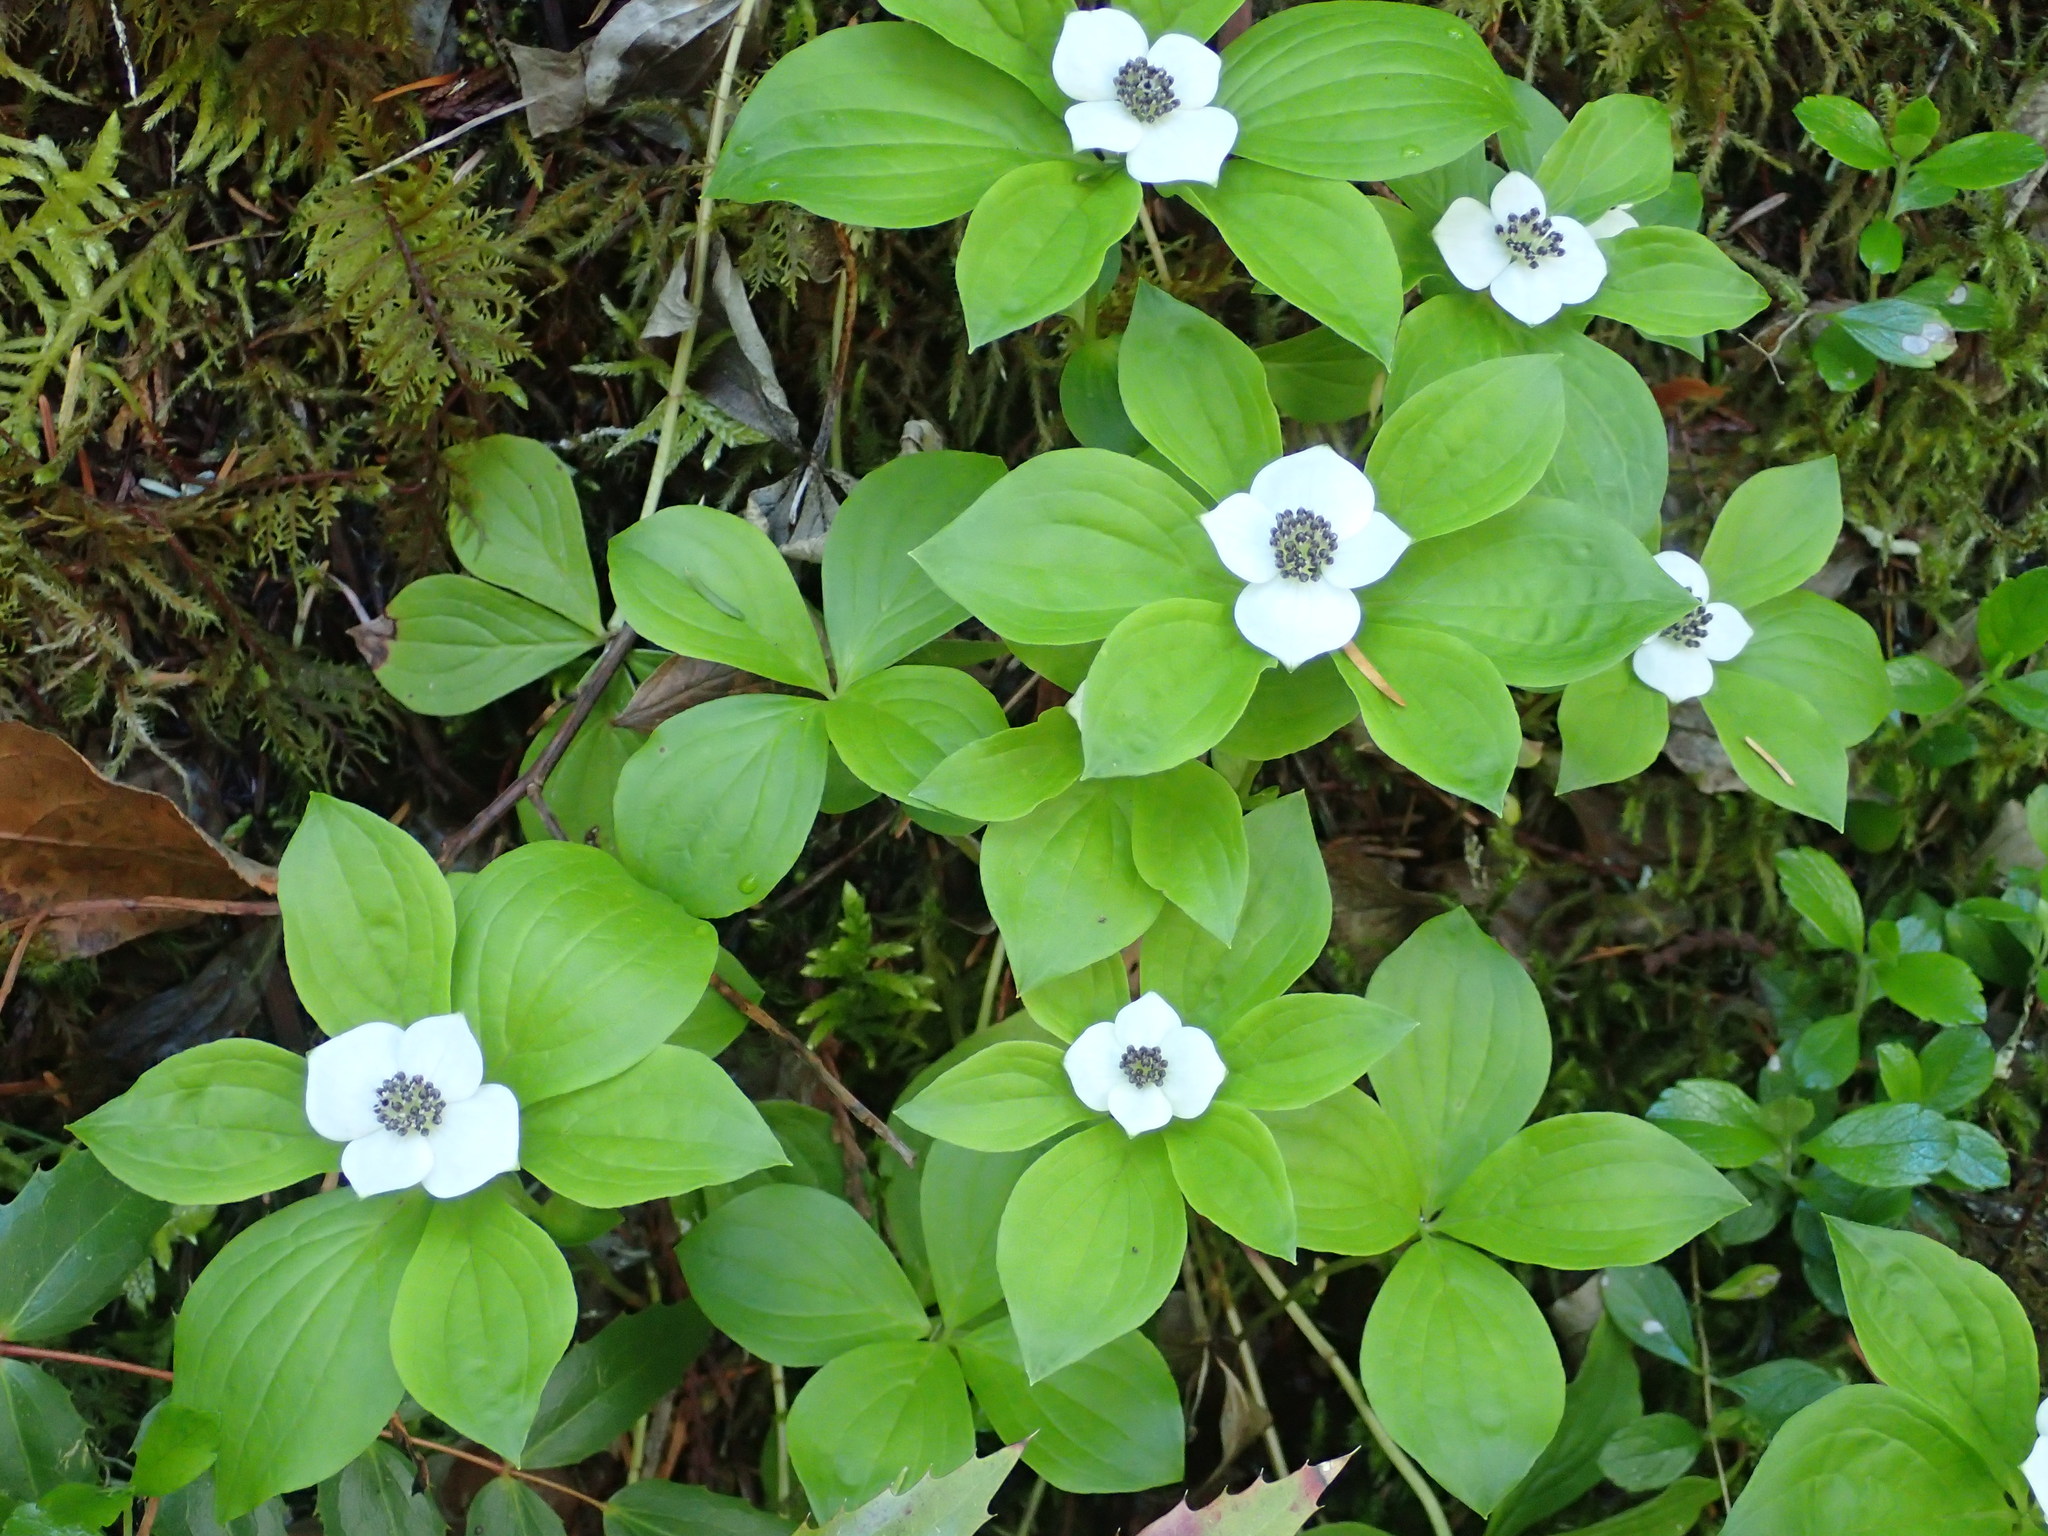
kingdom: Plantae
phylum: Tracheophyta
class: Magnoliopsida
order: Cornales
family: Cornaceae
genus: Cornus
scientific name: Cornus unalaschkensis
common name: Alaska bunchberry
